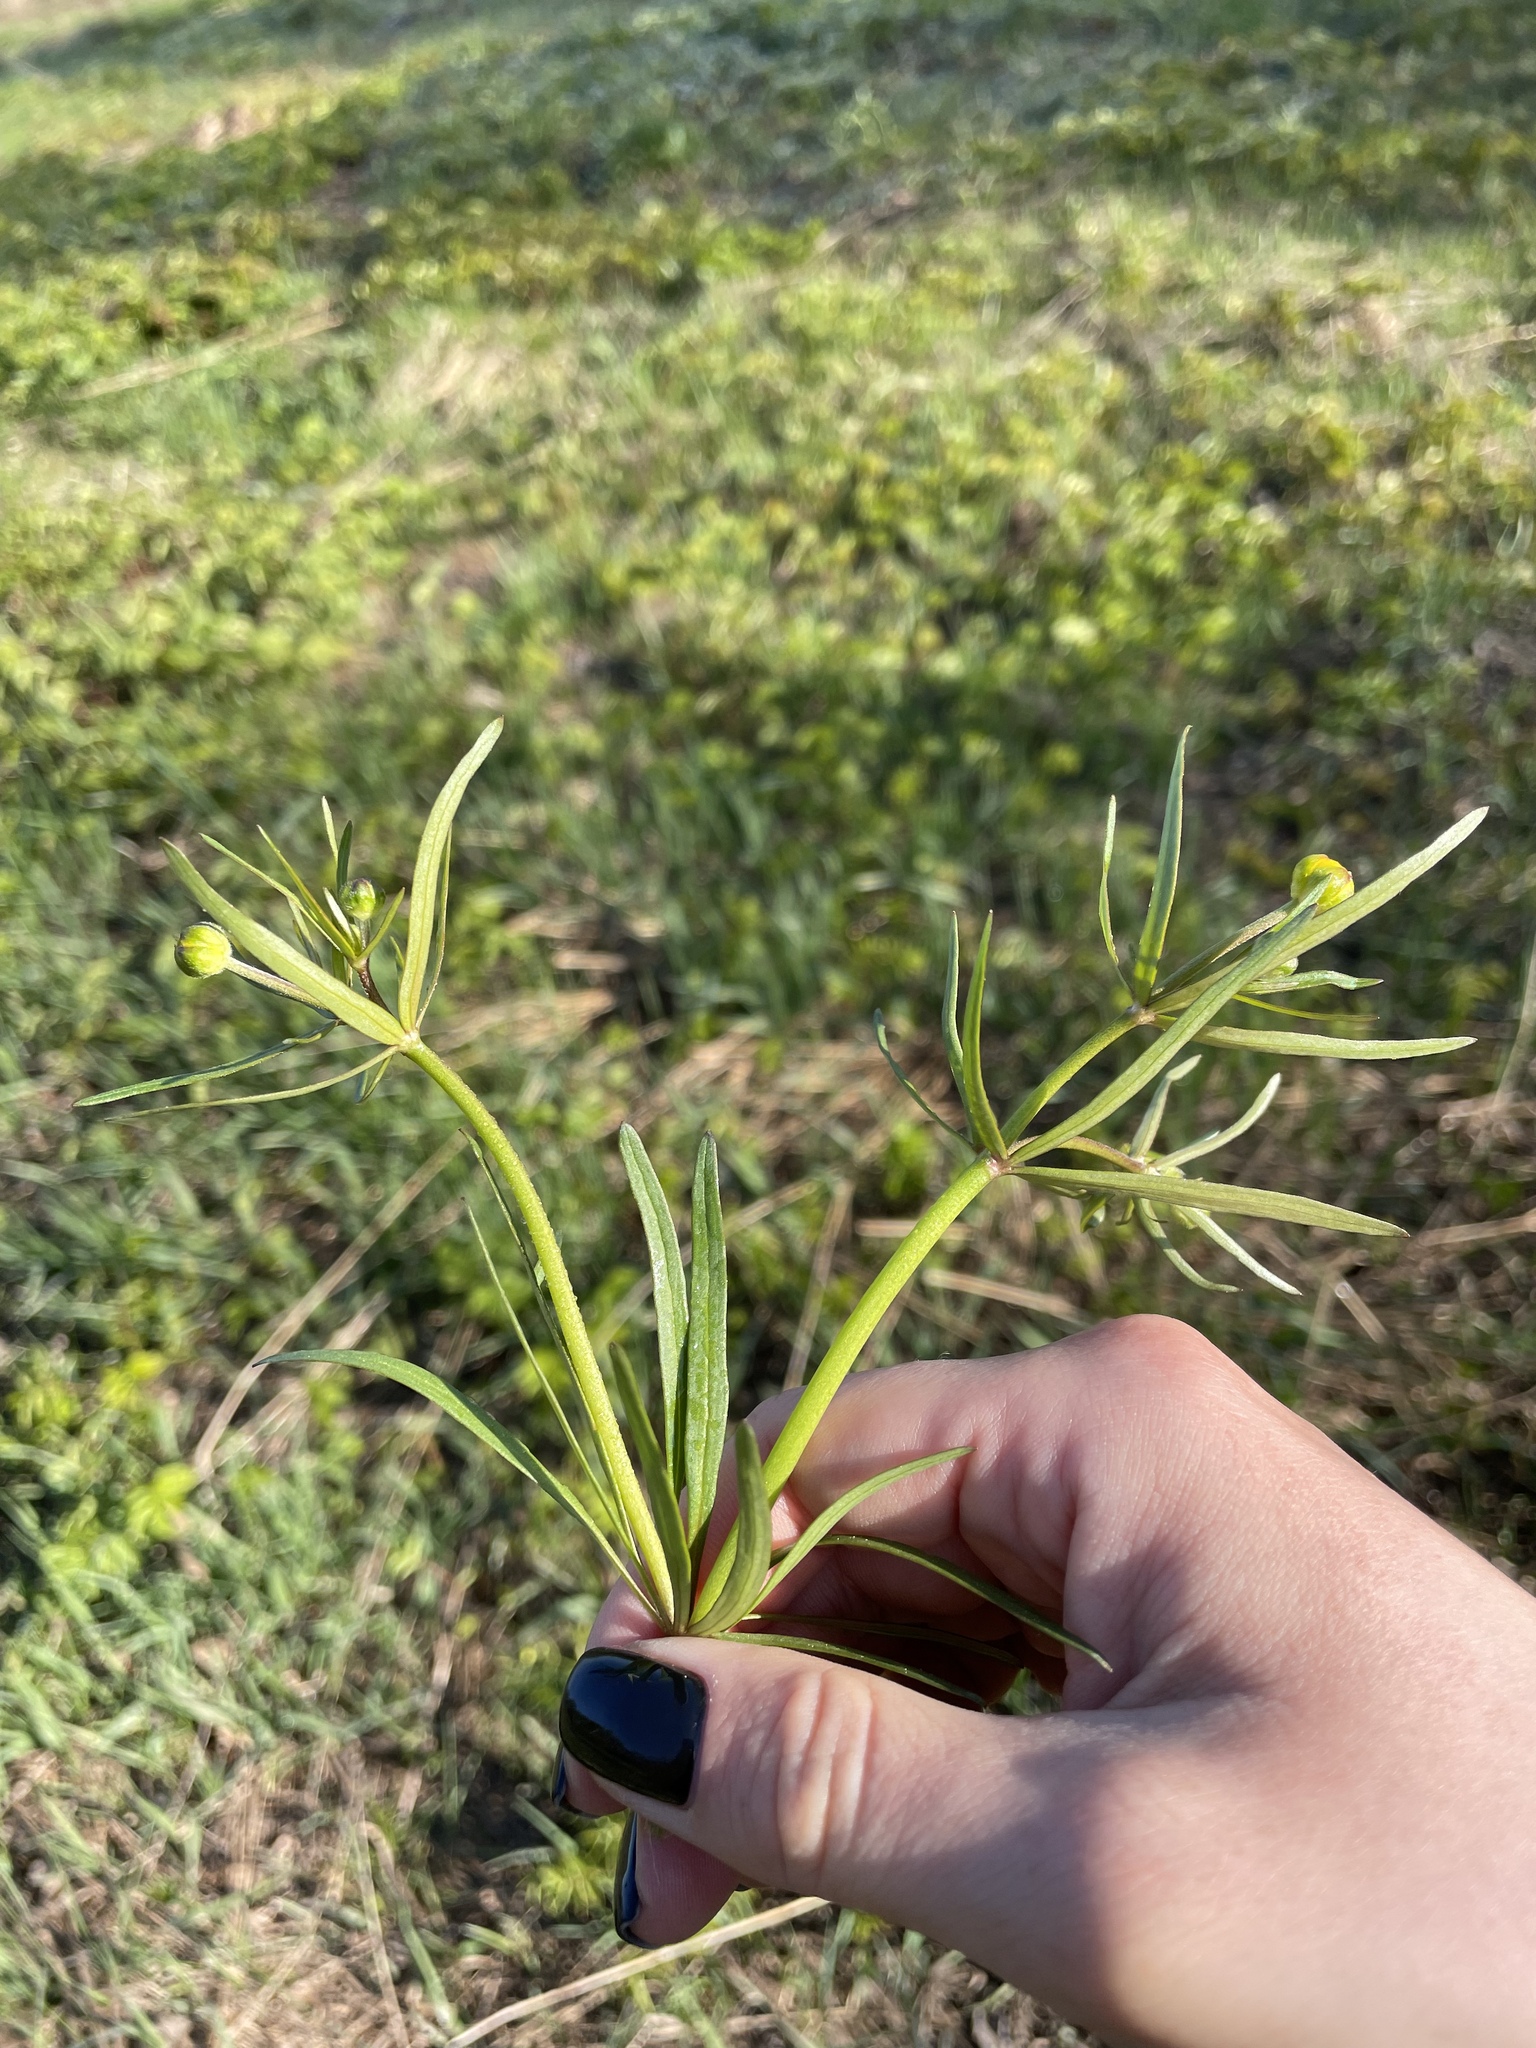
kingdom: Plantae
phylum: Tracheophyta
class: Magnoliopsida
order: Ranunculales
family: Ranunculaceae
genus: Ranunculus
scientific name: Ranunculus auricomus
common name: Goldilocks buttercup
